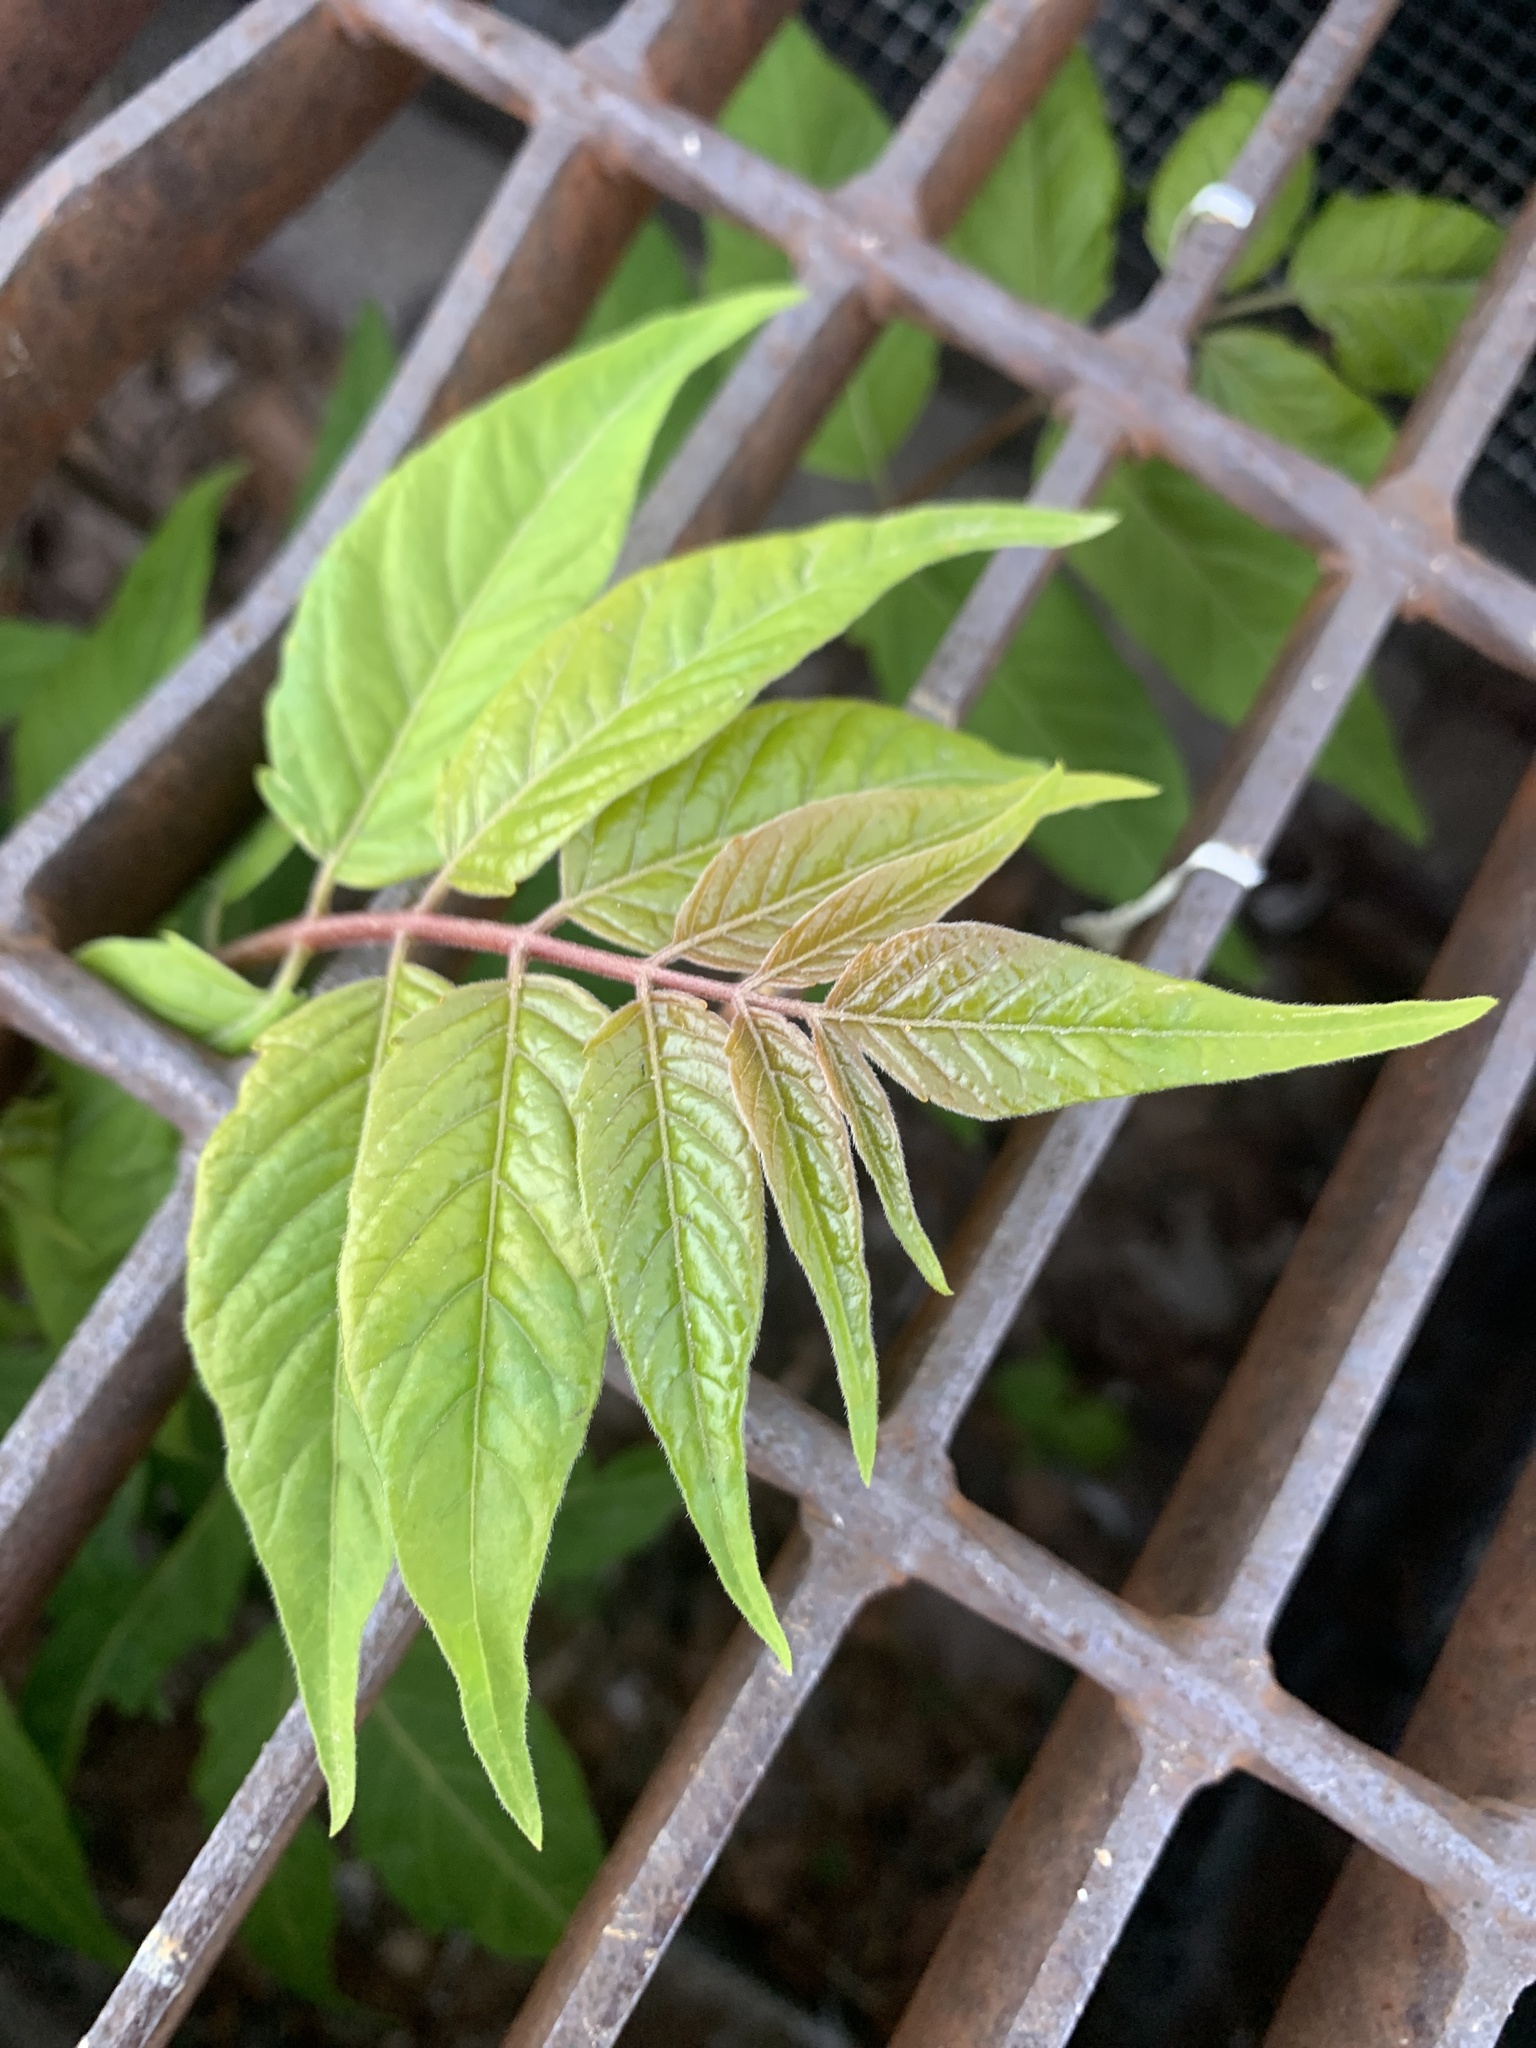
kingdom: Plantae
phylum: Tracheophyta
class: Magnoliopsida
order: Sapindales
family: Simaroubaceae
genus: Ailanthus
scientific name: Ailanthus altissima
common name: Tree-of-heaven
